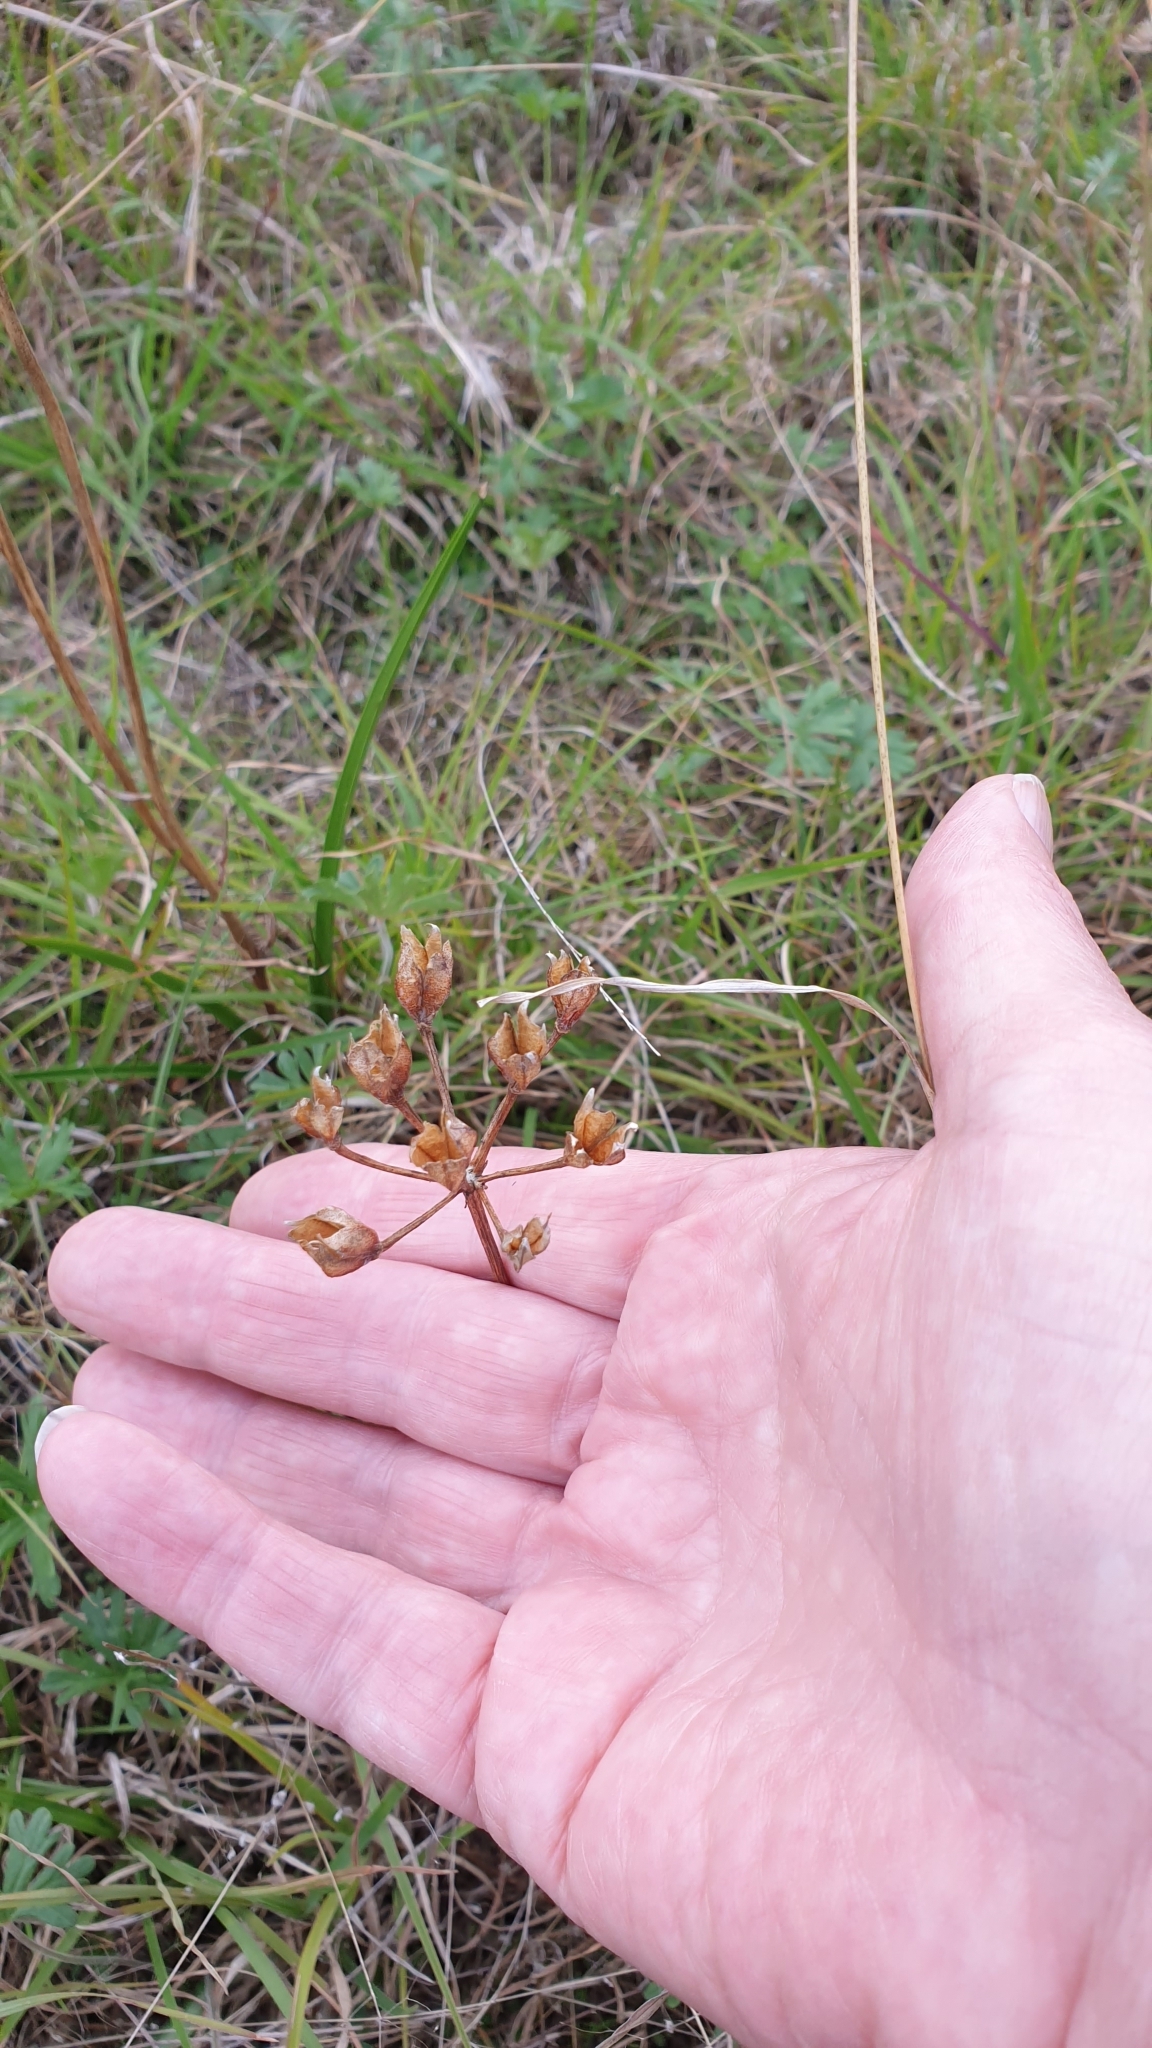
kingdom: Plantae
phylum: Tracheophyta
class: Liliopsida
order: Liliales
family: Colchicaceae
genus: Burchardia
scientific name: Burchardia umbellata
